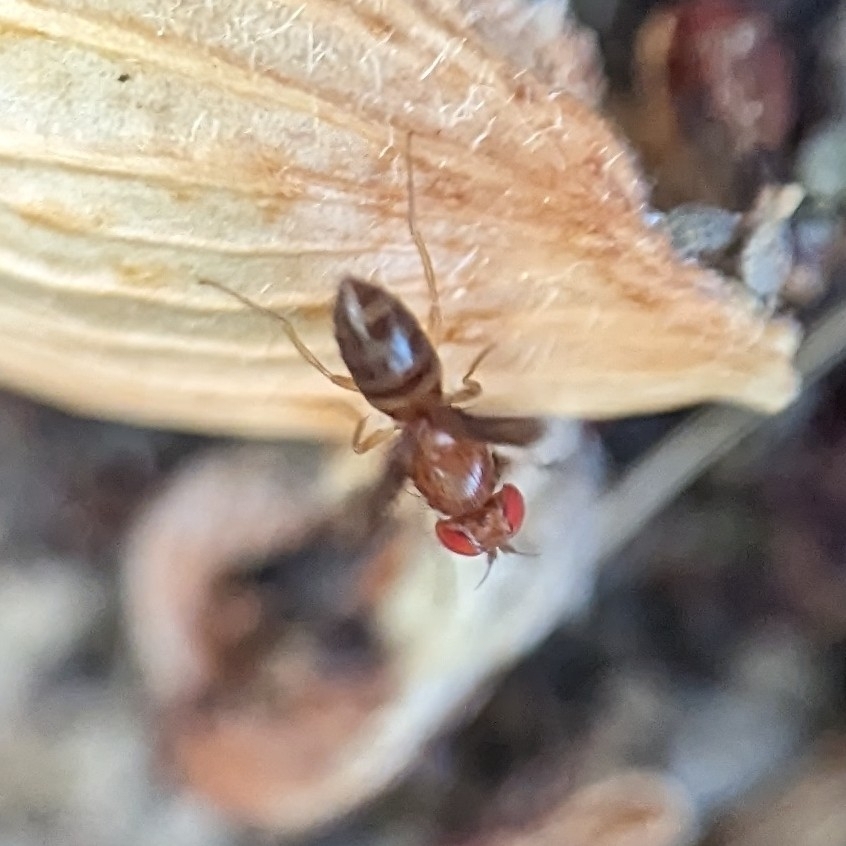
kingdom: Animalia
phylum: Arthropoda
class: Insecta
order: Diptera
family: Drosophilidae
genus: Chymomyza
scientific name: Chymomyza amoena
